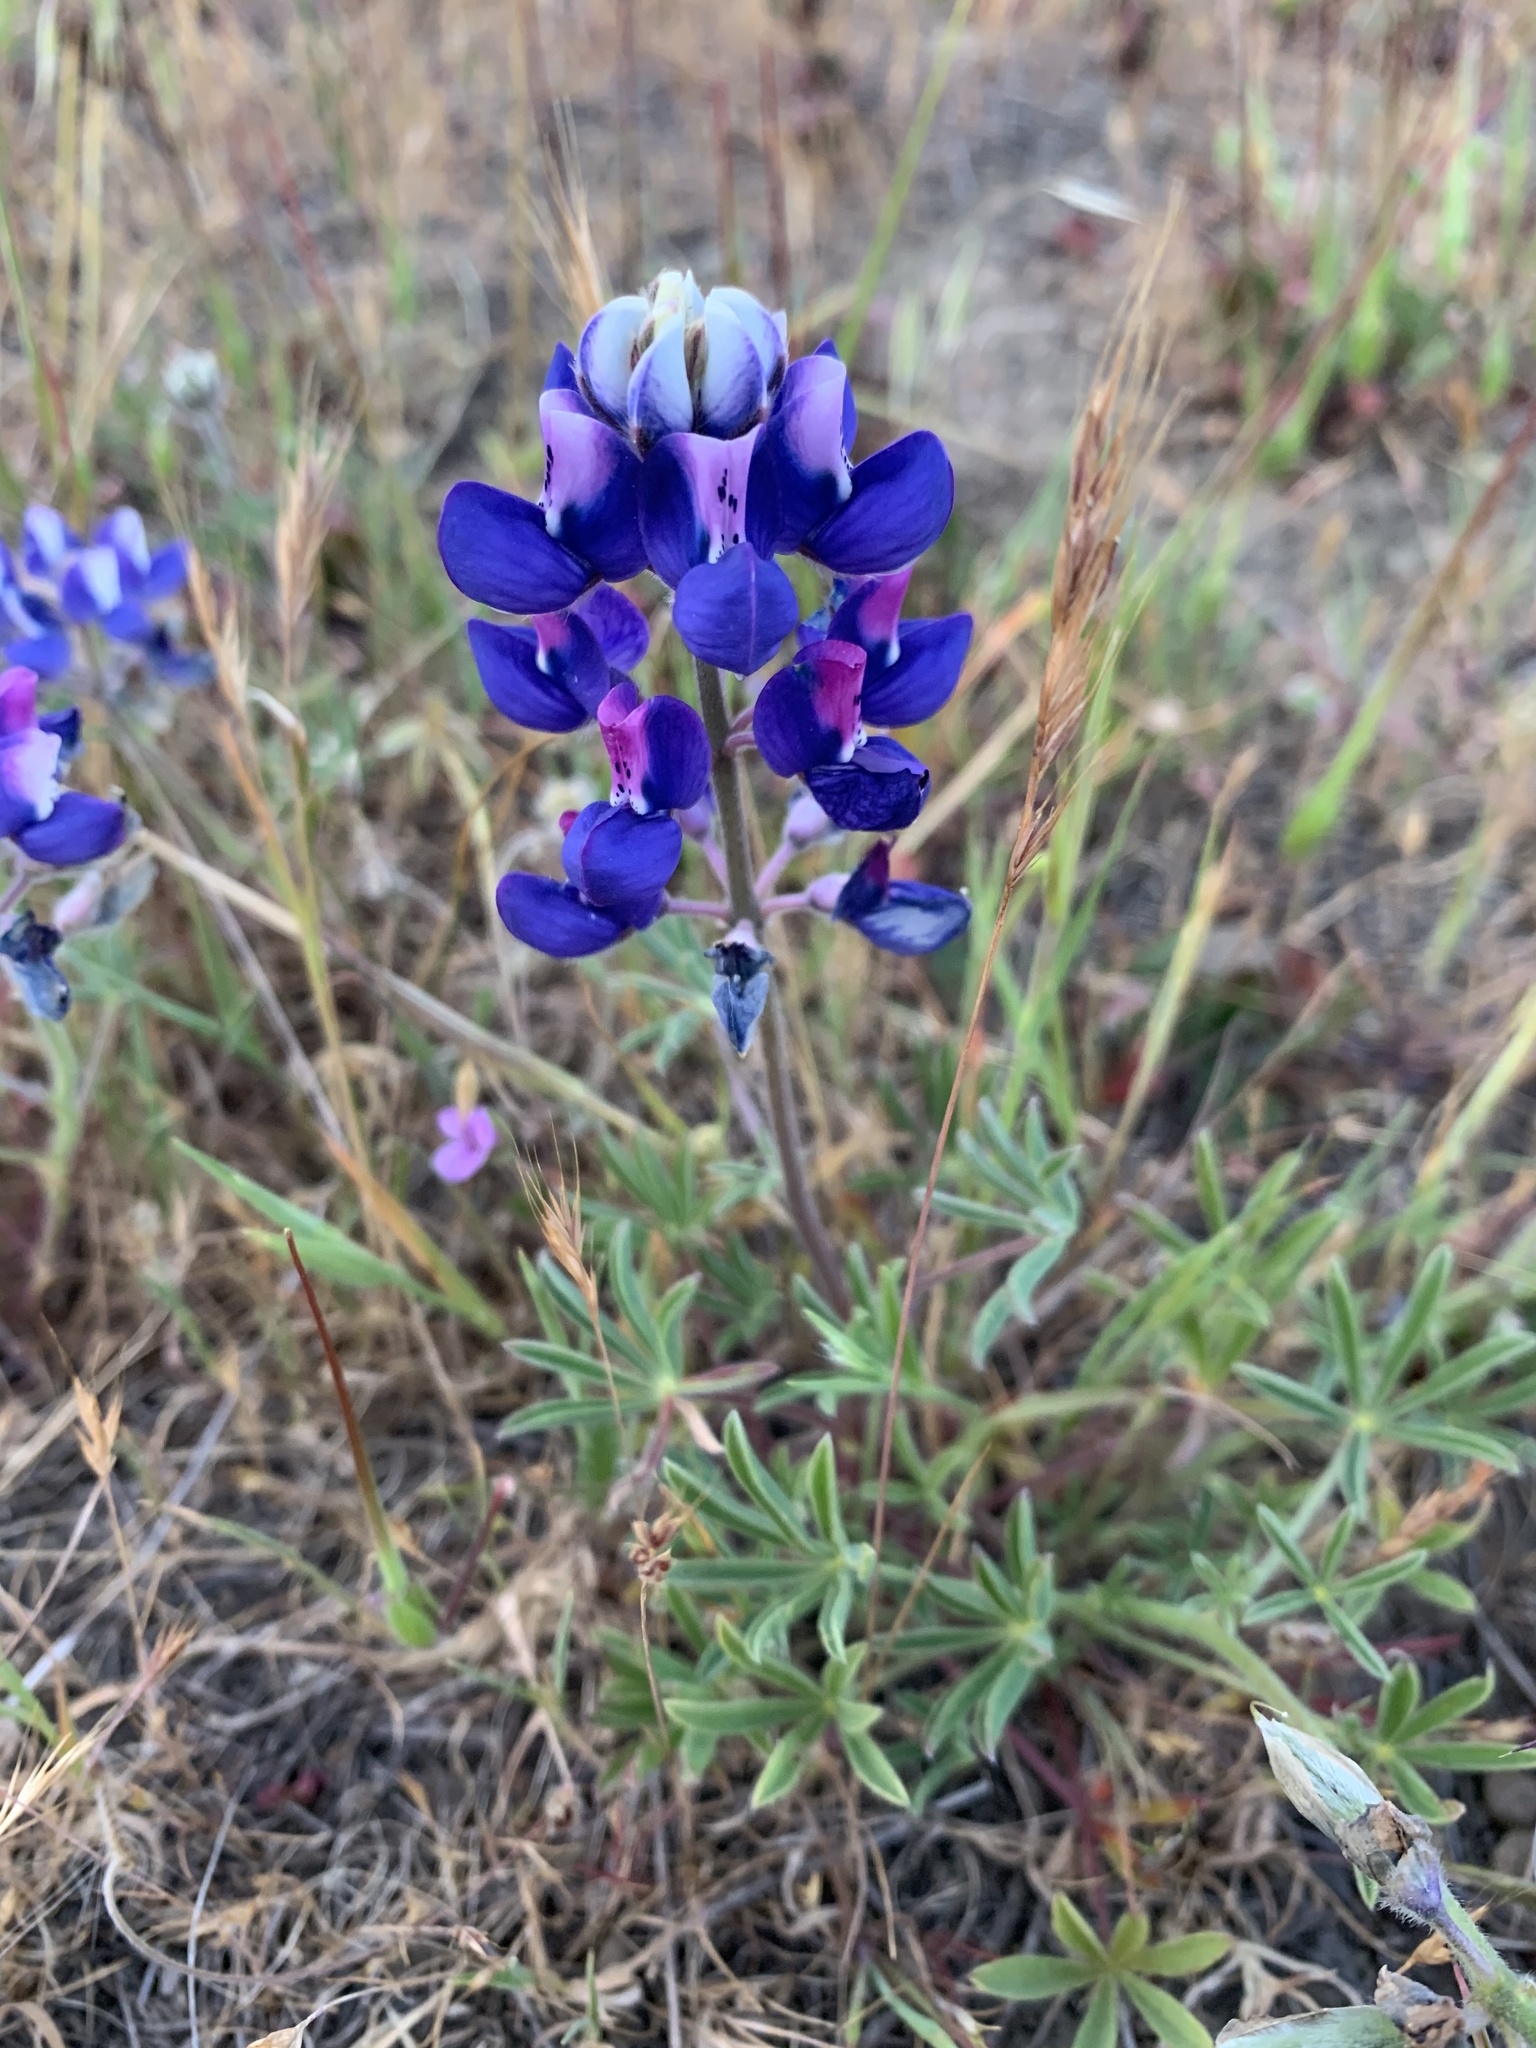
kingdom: Plantae
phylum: Tracheophyta
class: Magnoliopsida
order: Fabales
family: Fabaceae
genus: Lupinus
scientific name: Lupinus nanus
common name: Orean blue lupin
